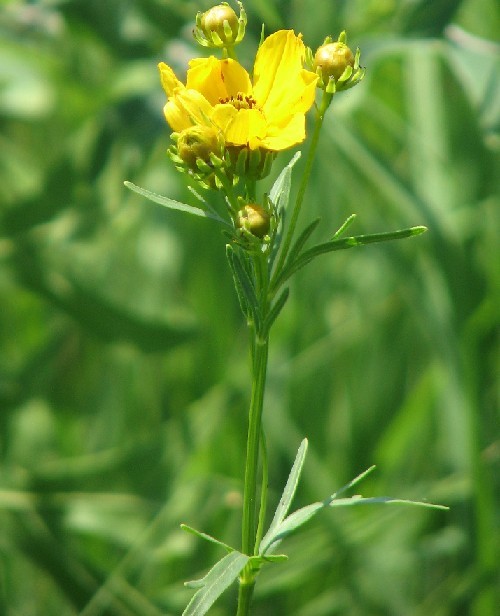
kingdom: Plantae
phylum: Tracheophyta
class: Magnoliopsida
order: Asterales
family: Asteraceae
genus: Coreopsis
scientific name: Coreopsis palmata
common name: Prairie coreopsis
